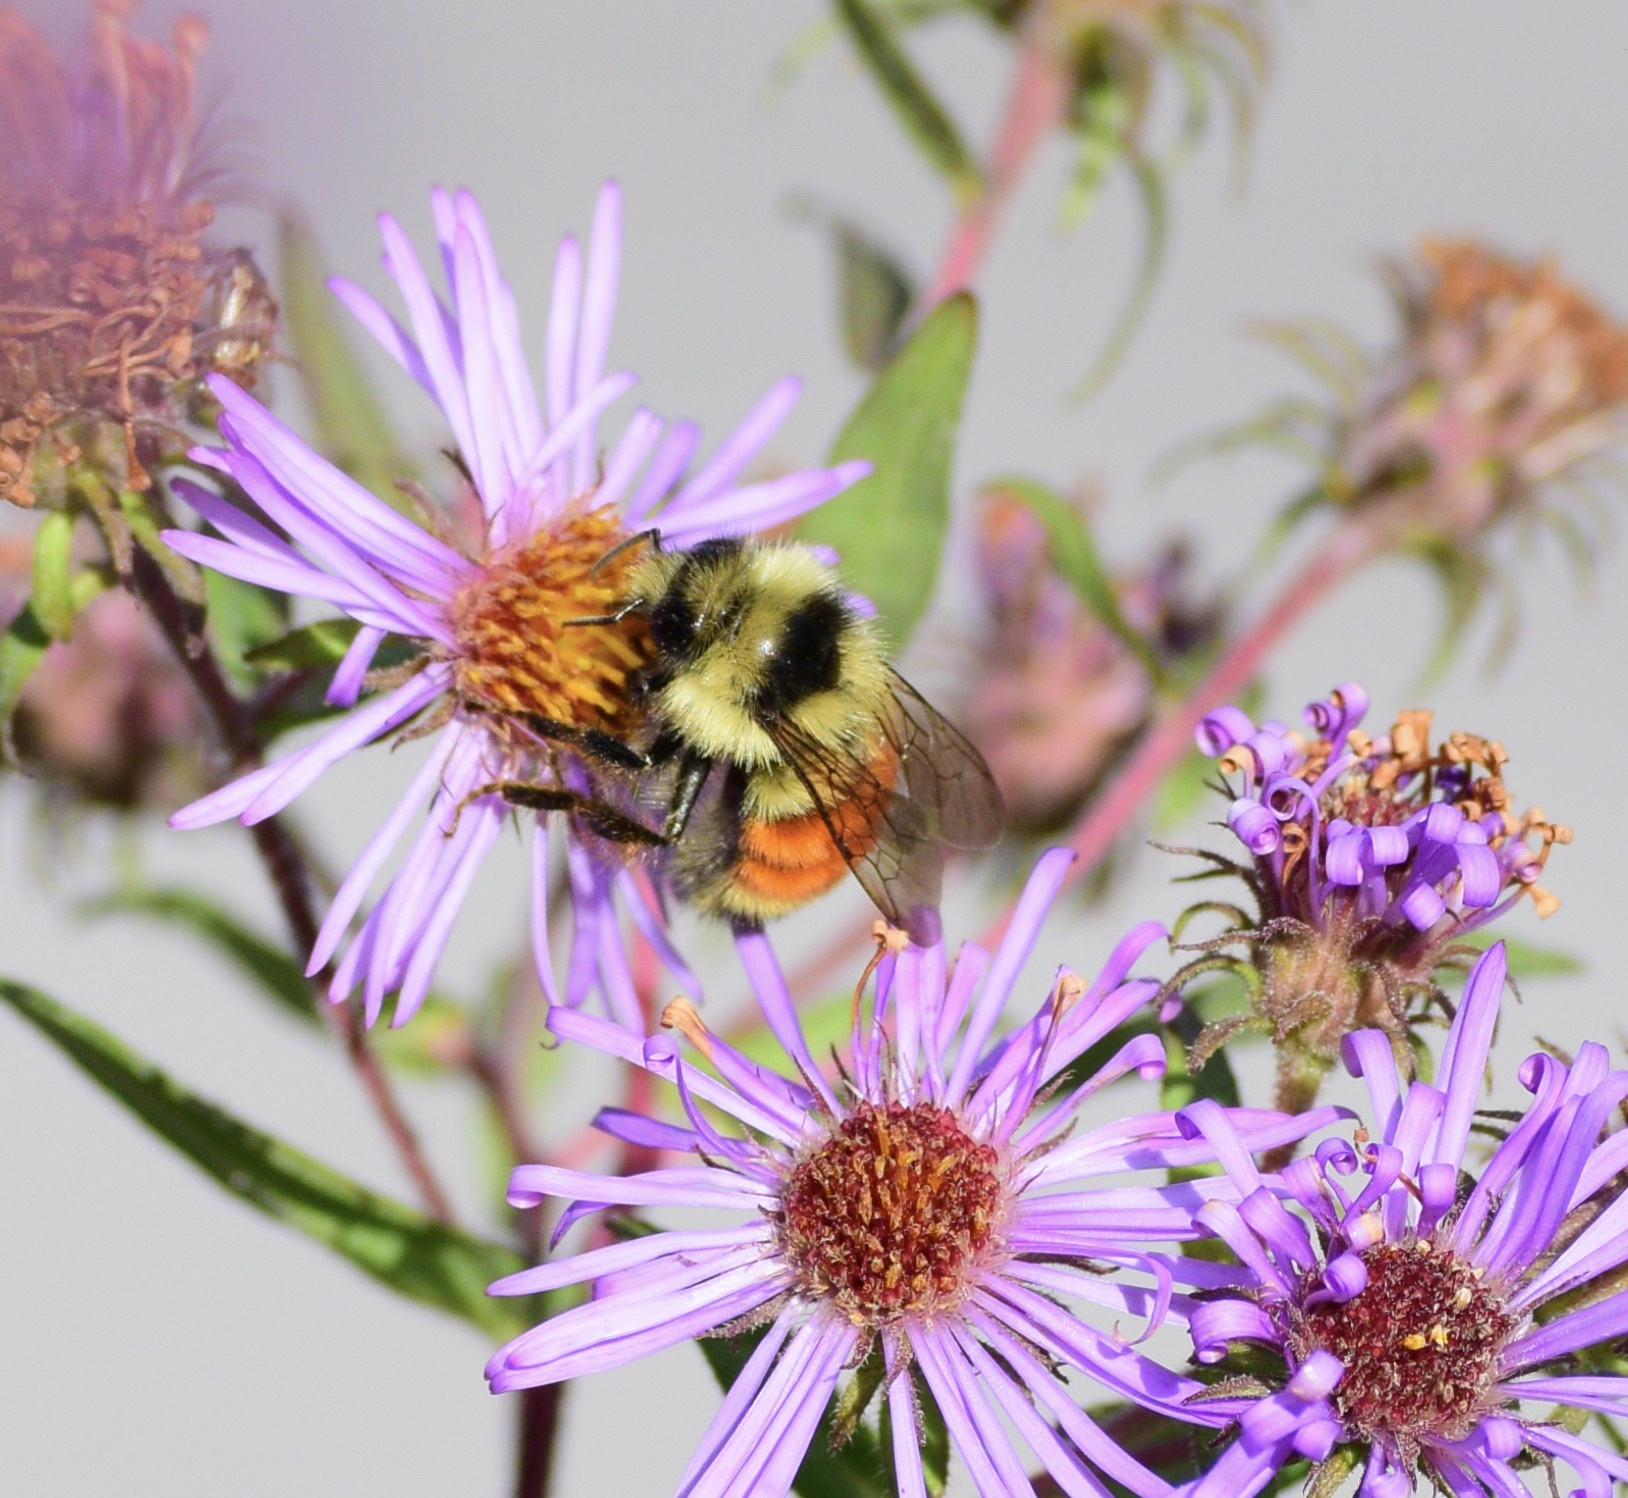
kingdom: Animalia
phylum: Arthropoda
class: Insecta
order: Hymenoptera
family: Apidae
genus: Bombus
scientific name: Bombus ternarius
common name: Tri-colored bumble bee
